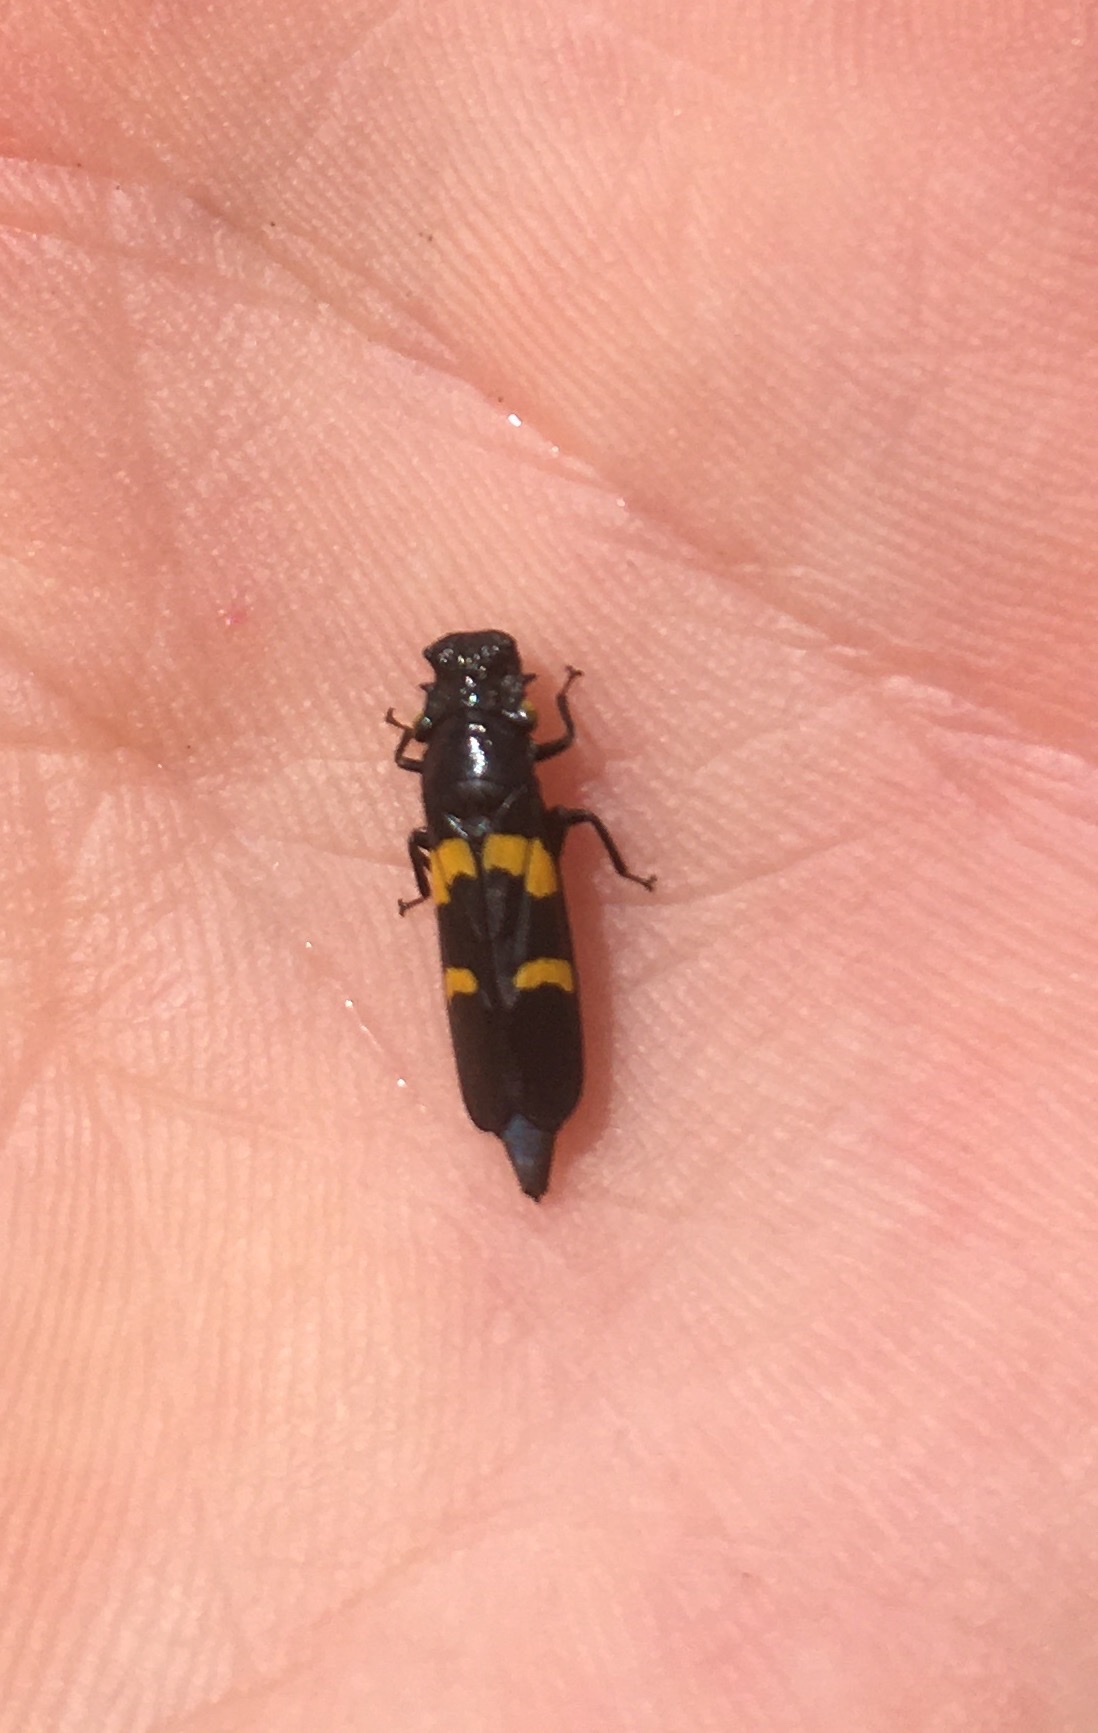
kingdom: Animalia
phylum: Arthropoda
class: Insecta
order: Hemiptera
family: Cicadellidae
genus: Ochrostacta
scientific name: Ochrostacta diadema
